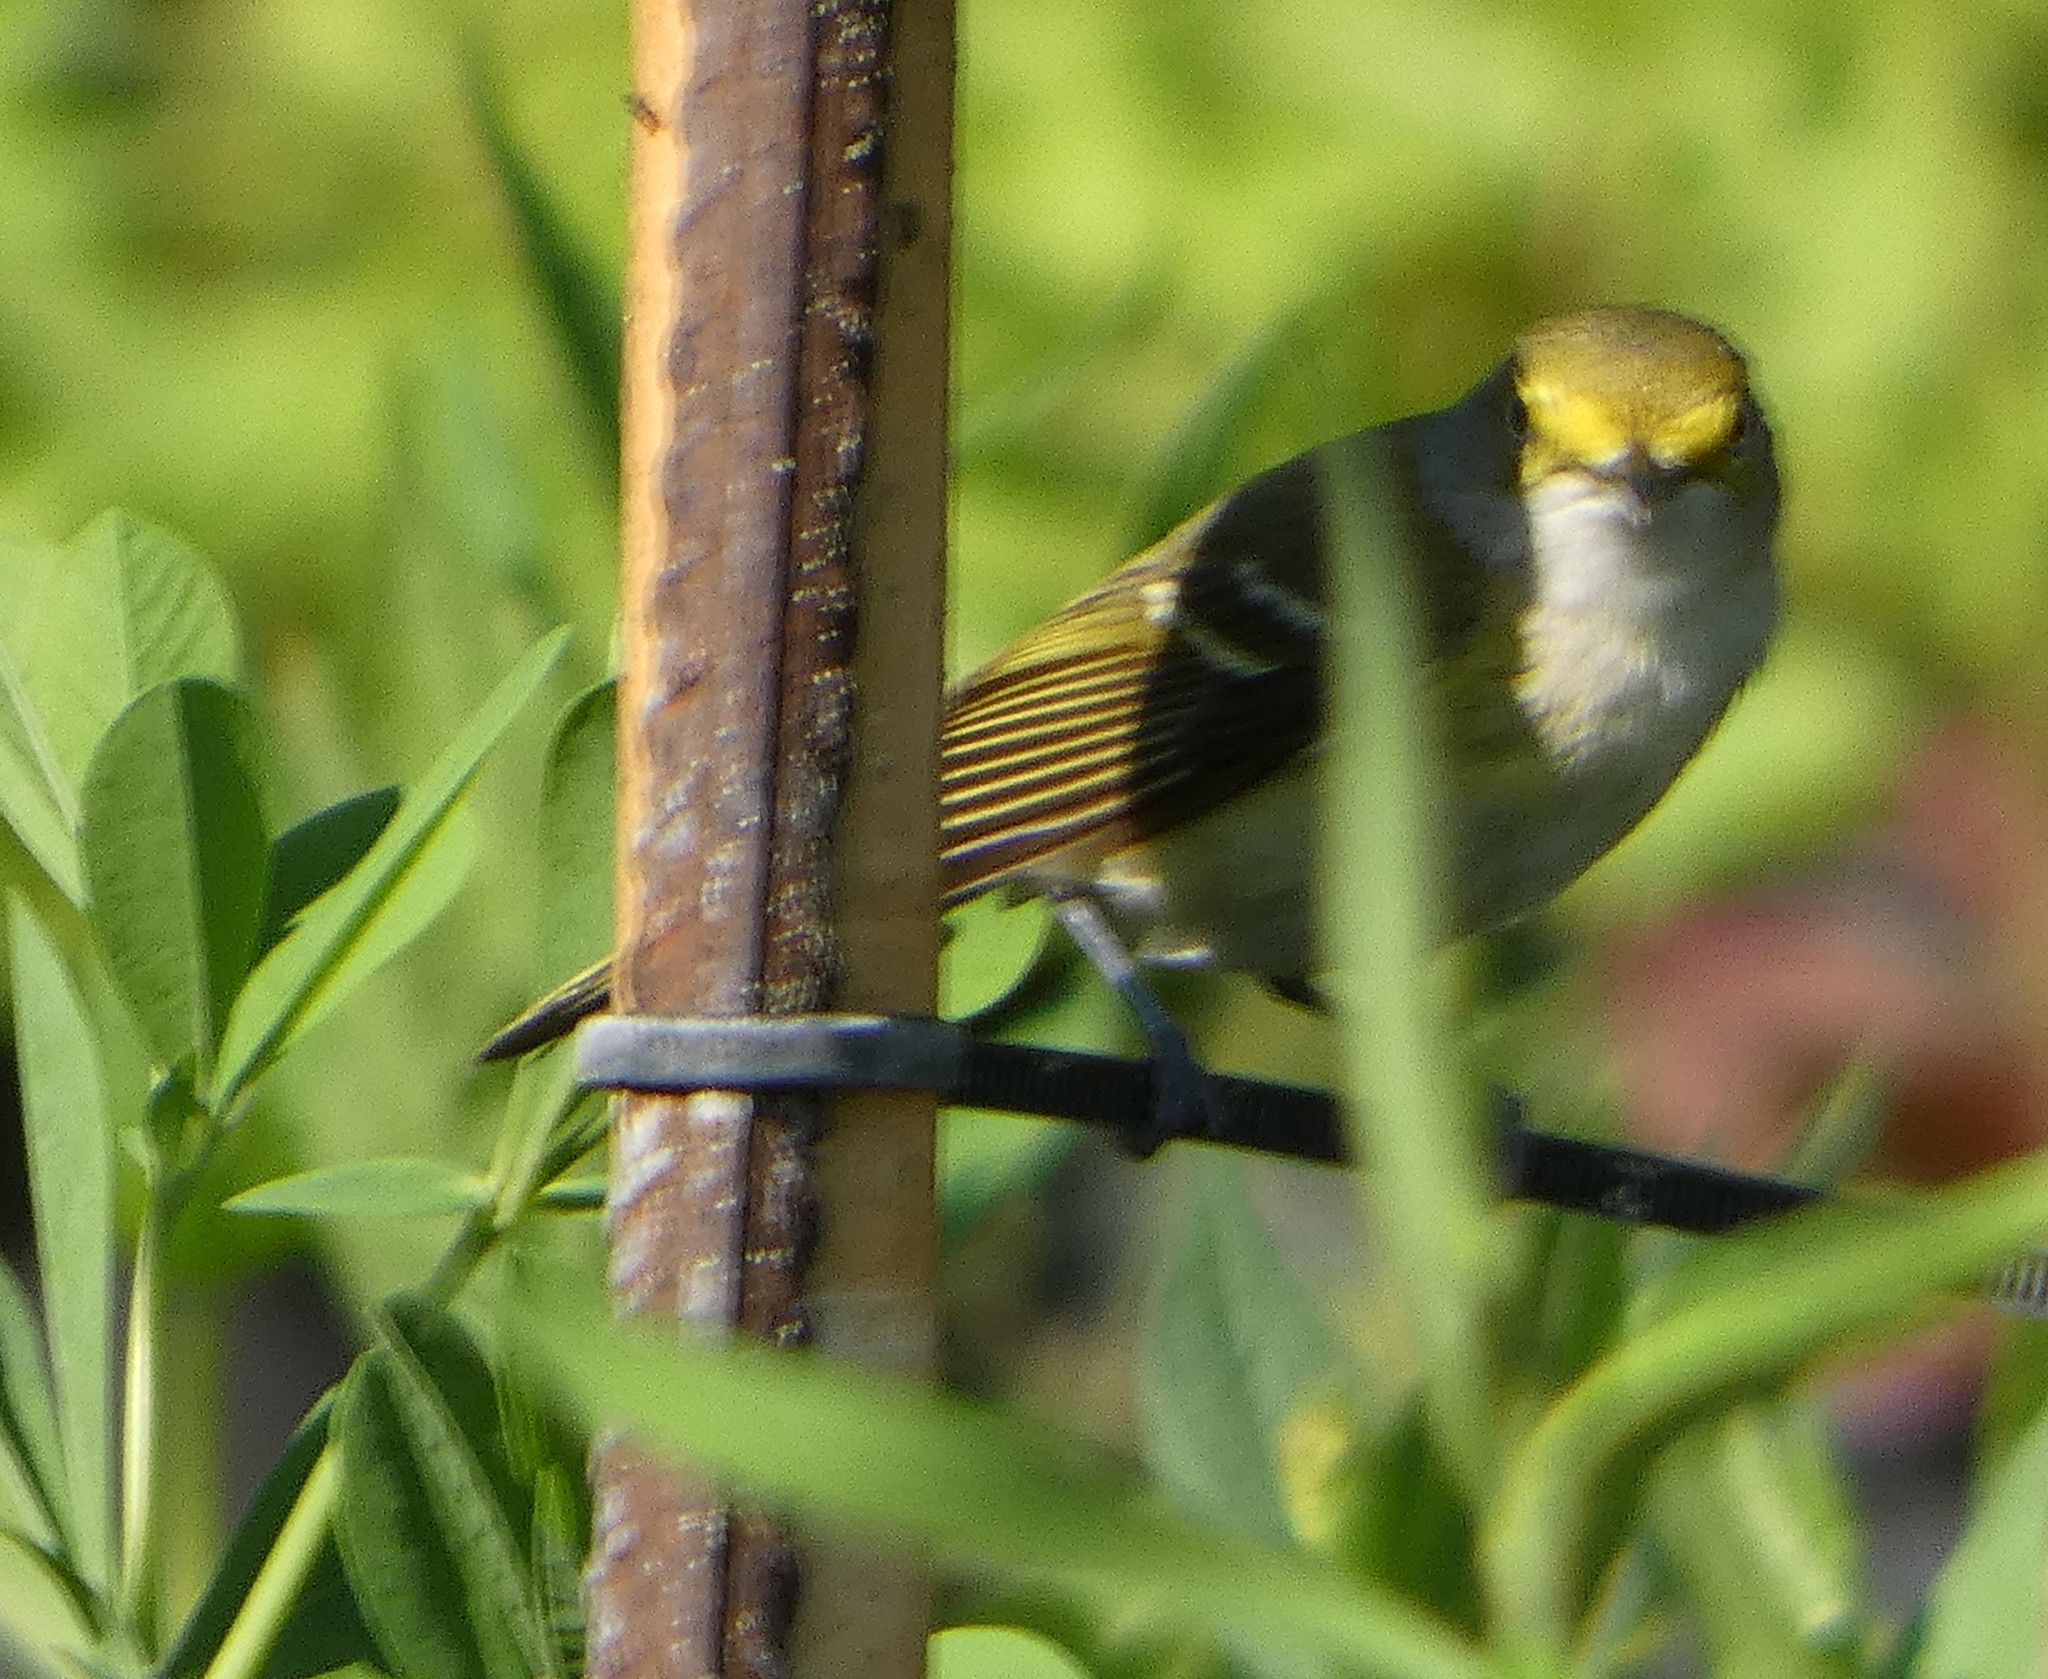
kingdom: Animalia
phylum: Chordata
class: Aves
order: Passeriformes
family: Vireonidae
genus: Vireo
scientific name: Vireo griseus
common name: White-eyed vireo
